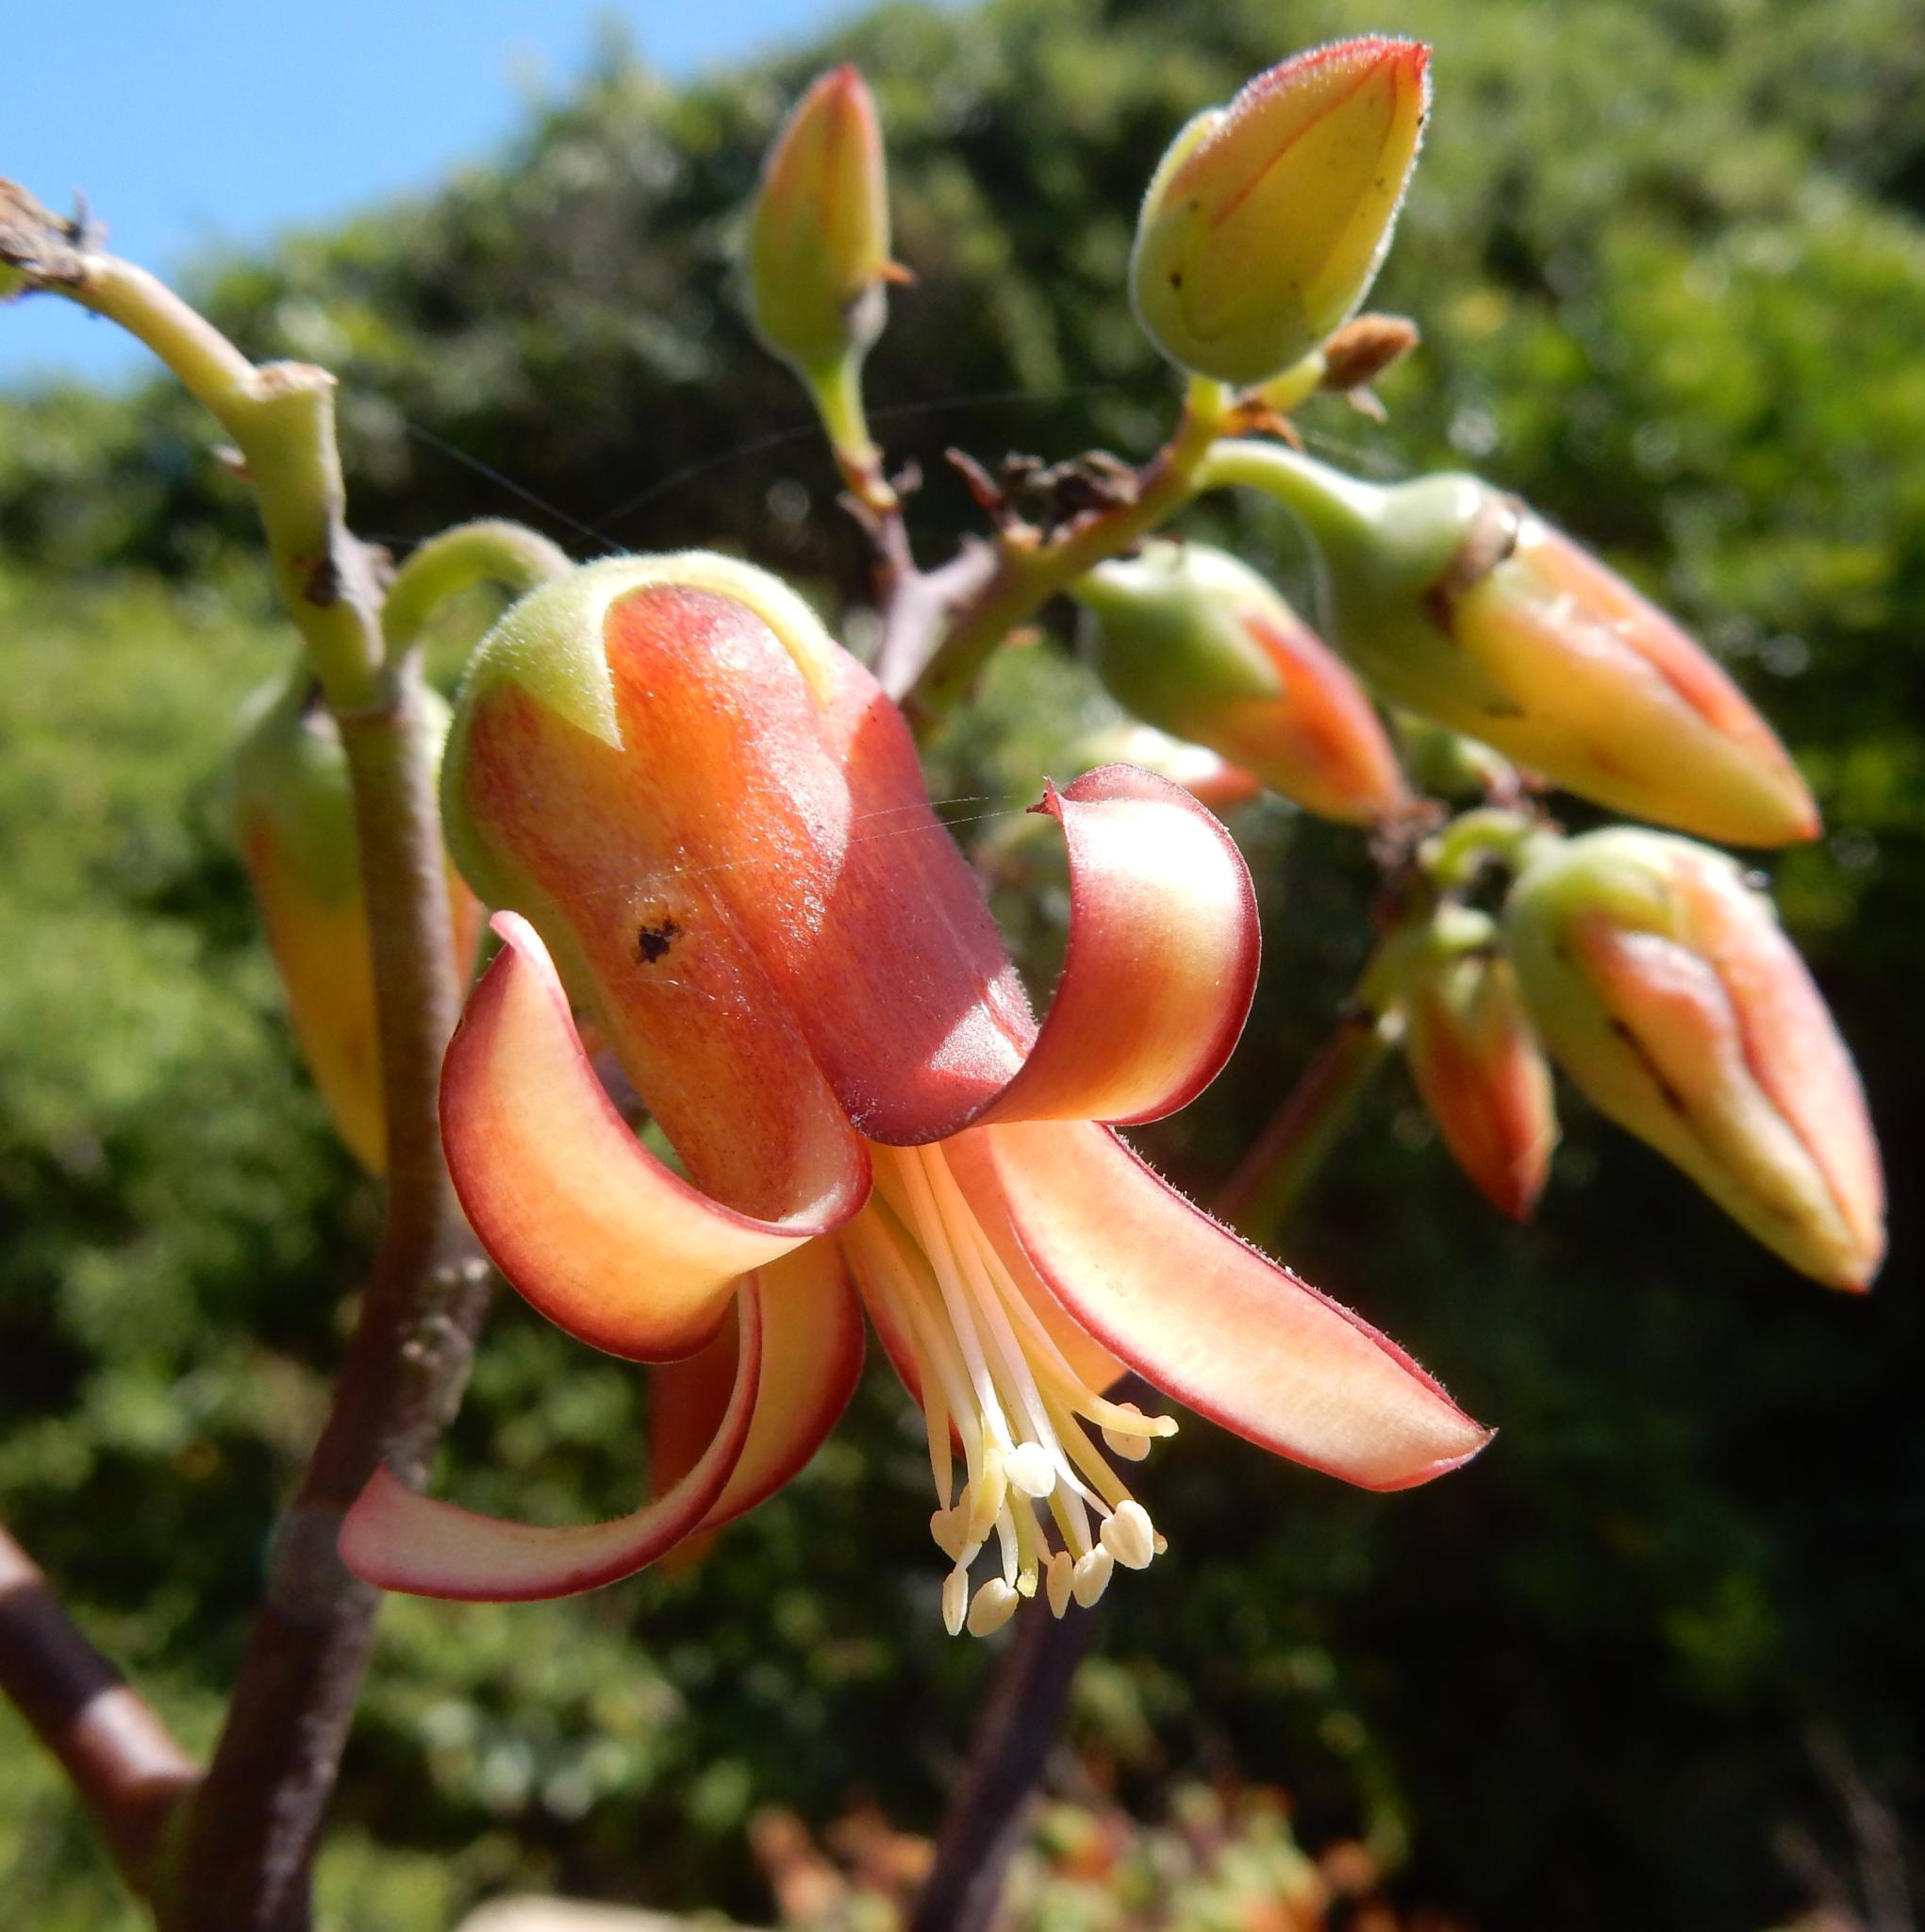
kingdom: Plantae
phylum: Tracheophyta
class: Magnoliopsida
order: Saxifragales
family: Crassulaceae
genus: Cotyledon
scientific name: Cotyledon velutina
